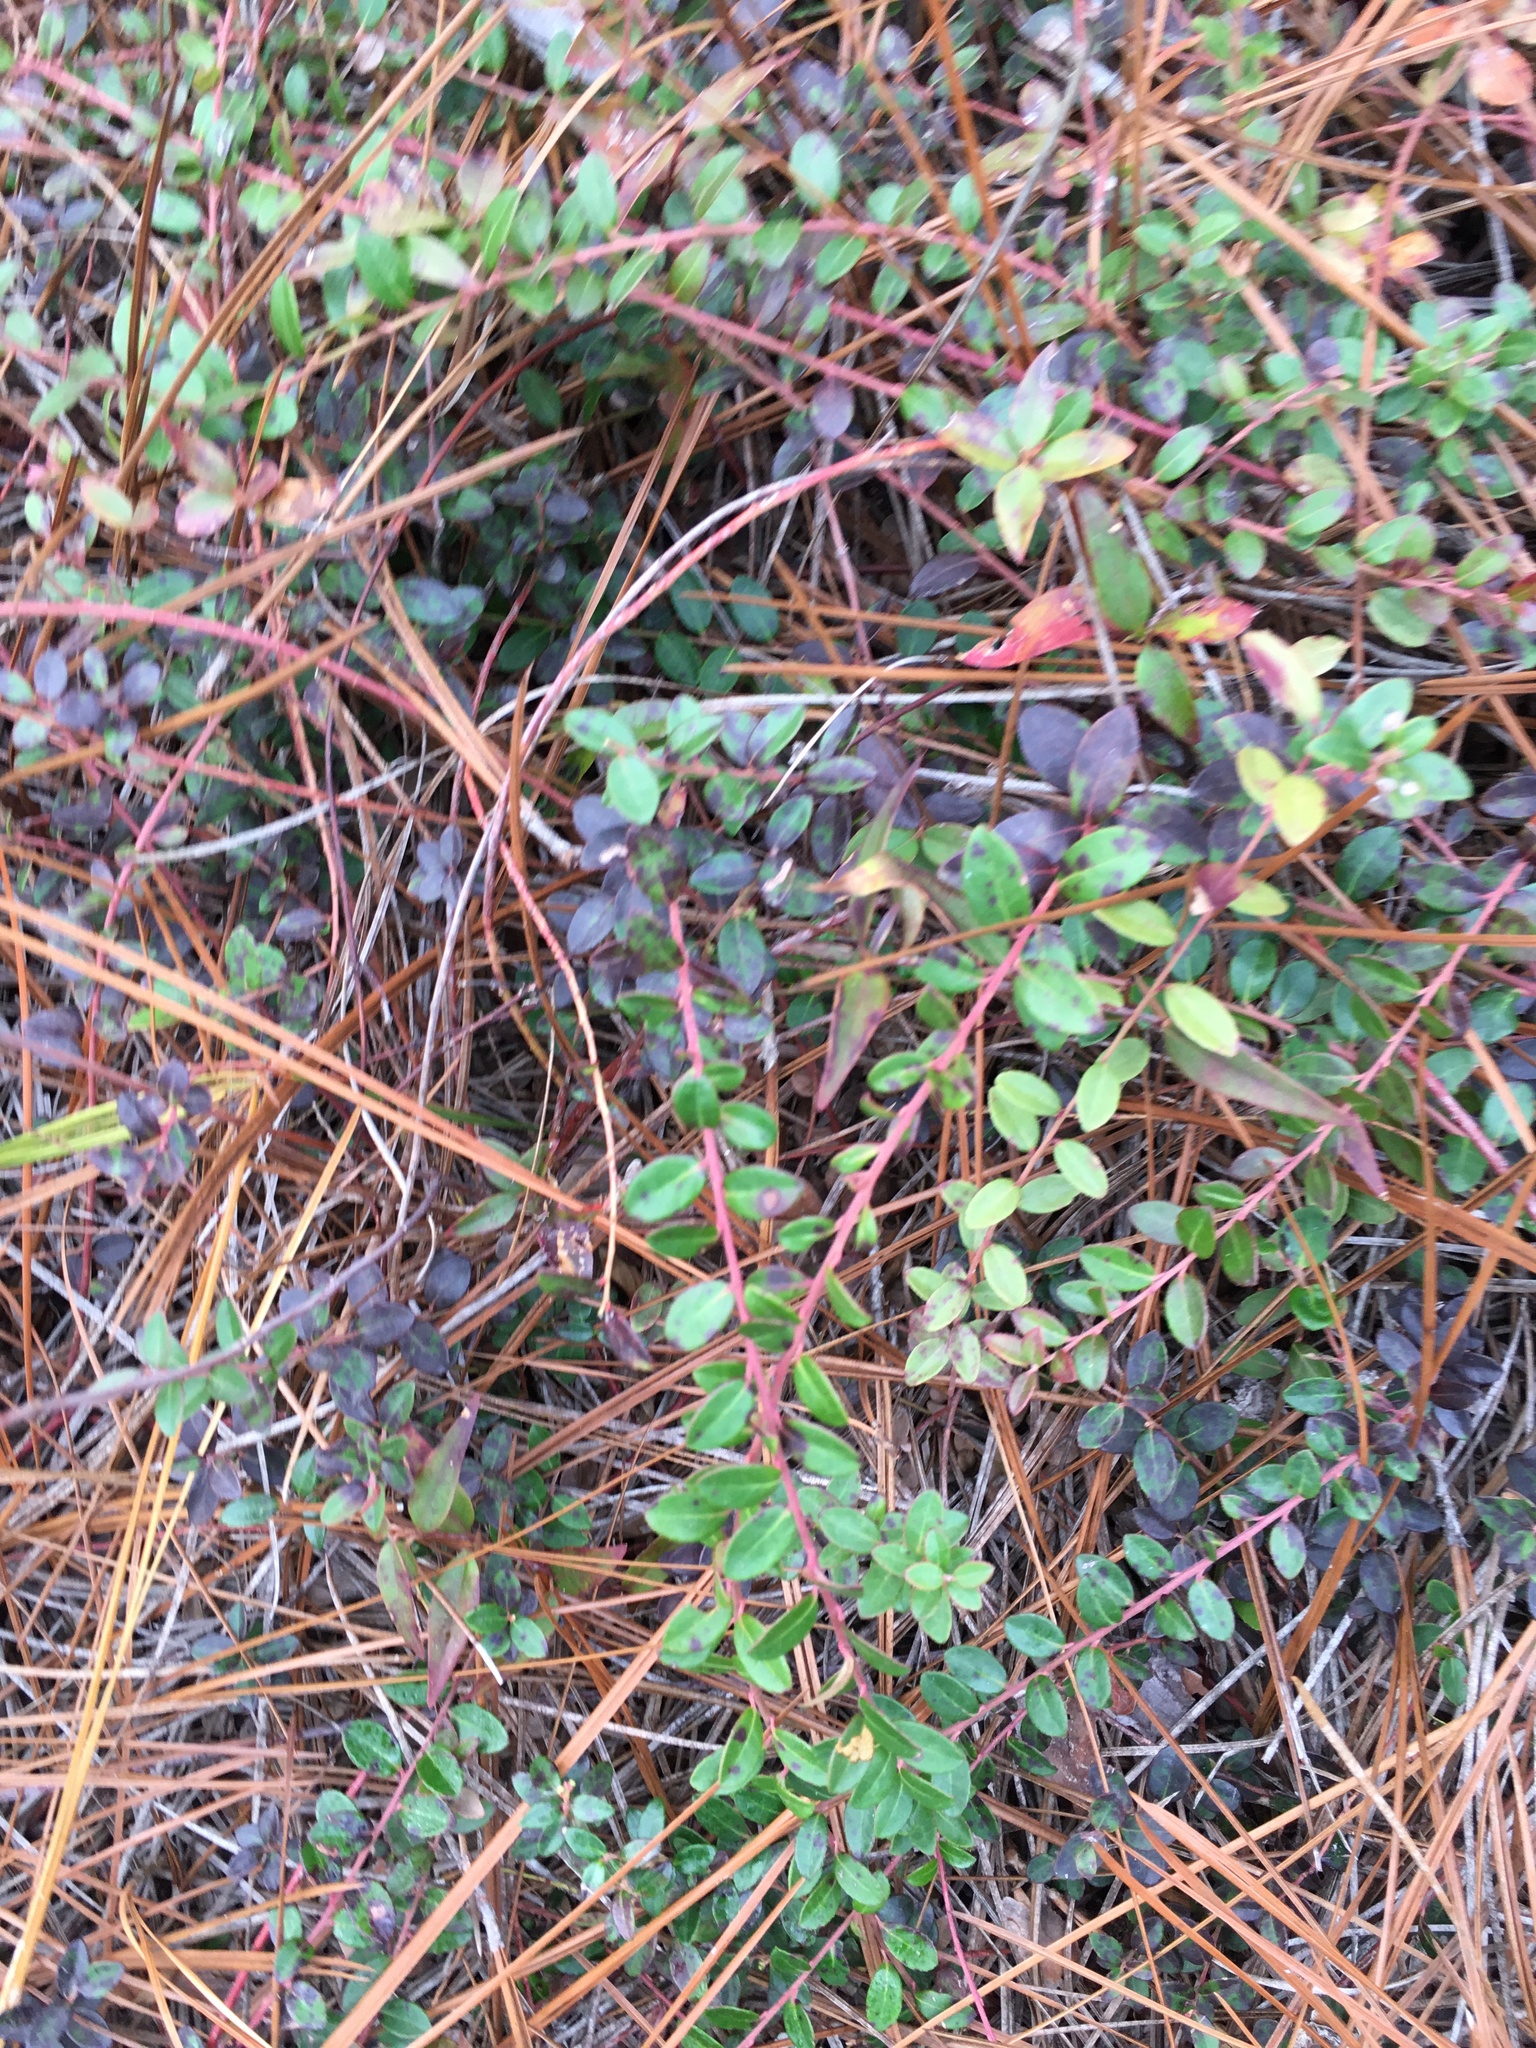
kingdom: Plantae
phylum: Tracheophyta
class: Magnoliopsida
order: Ericales
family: Ericaceae
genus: Vaccinium
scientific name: Vaccinium crassifolium
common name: Creeping blueberry
